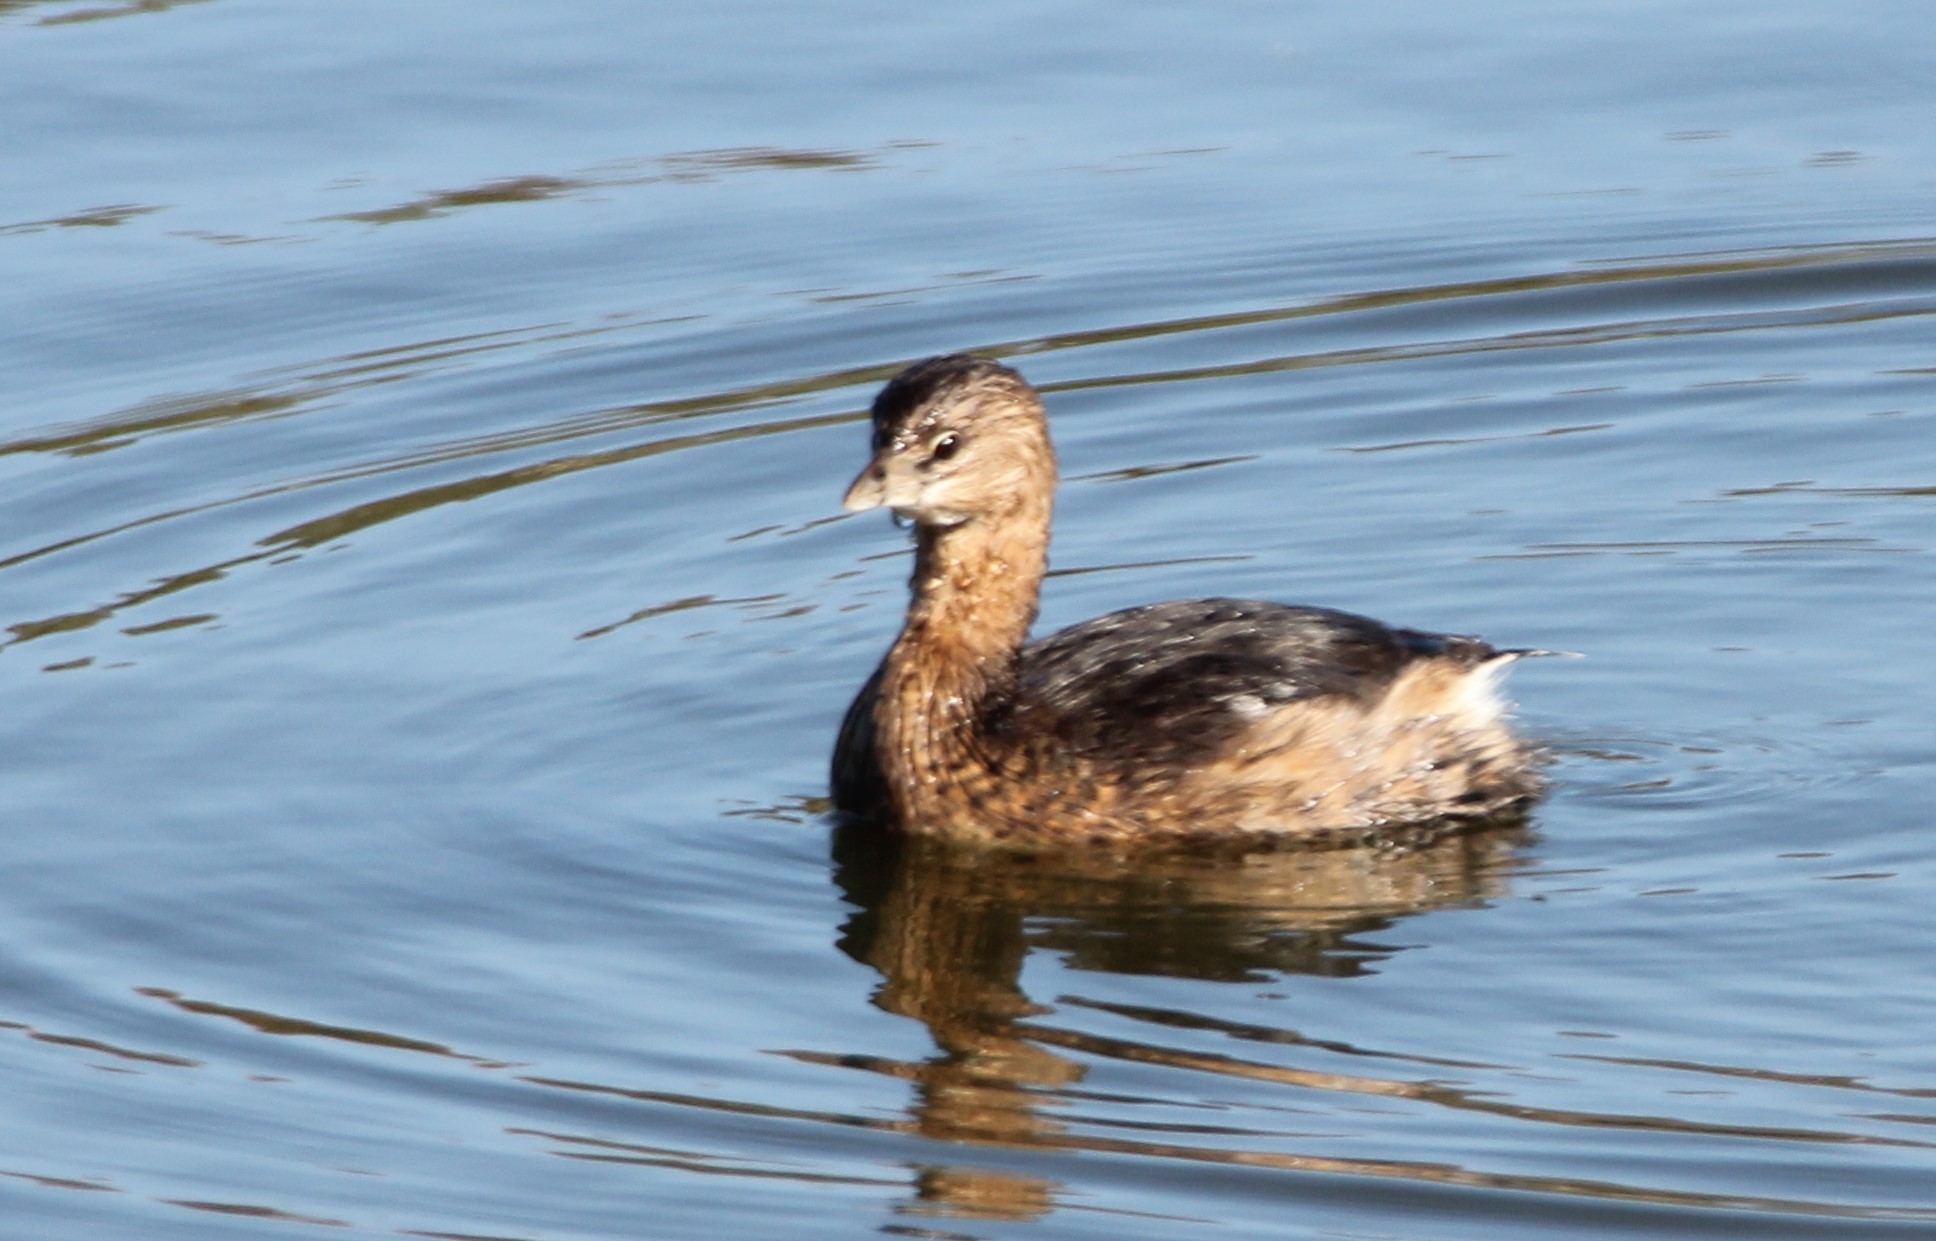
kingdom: Animalia
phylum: Chordata
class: Aves
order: Podicipediformes
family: Podicipedidae
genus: Podilymbus
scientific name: Podilymbus podiceps
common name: Pied-billed grebe
